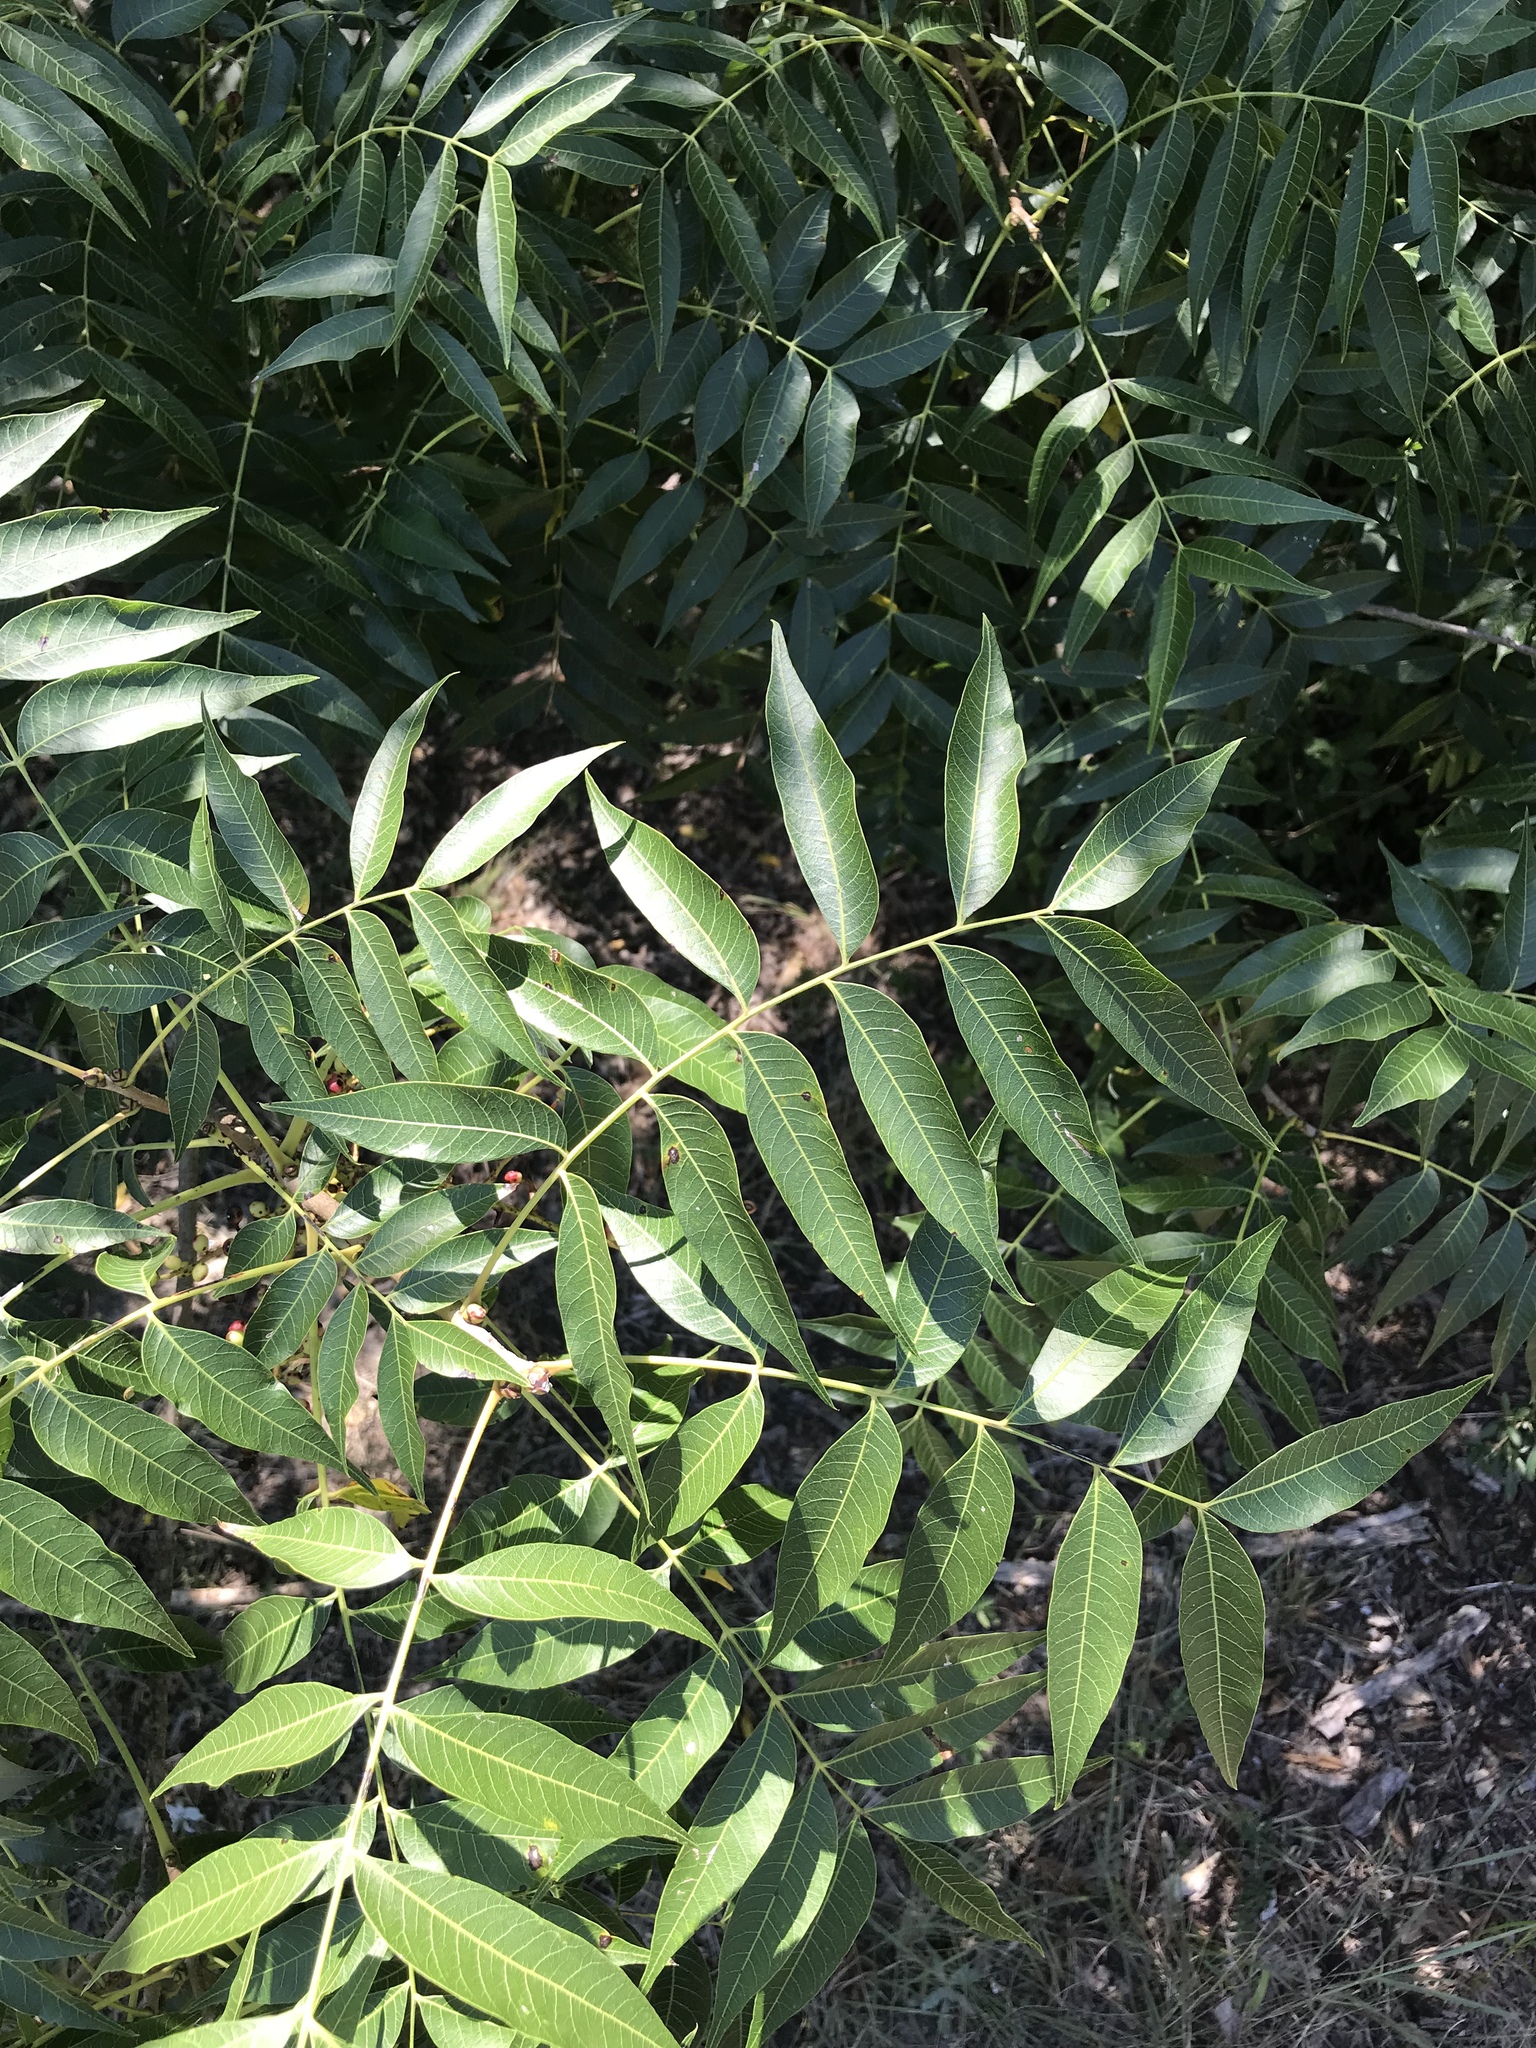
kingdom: Plantae
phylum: Tracheophyta
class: Magnoliopsida
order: Sapindales
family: Anacardiaceae
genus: Pistacia
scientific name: Pistacia chinensis
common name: Chinese pistache
